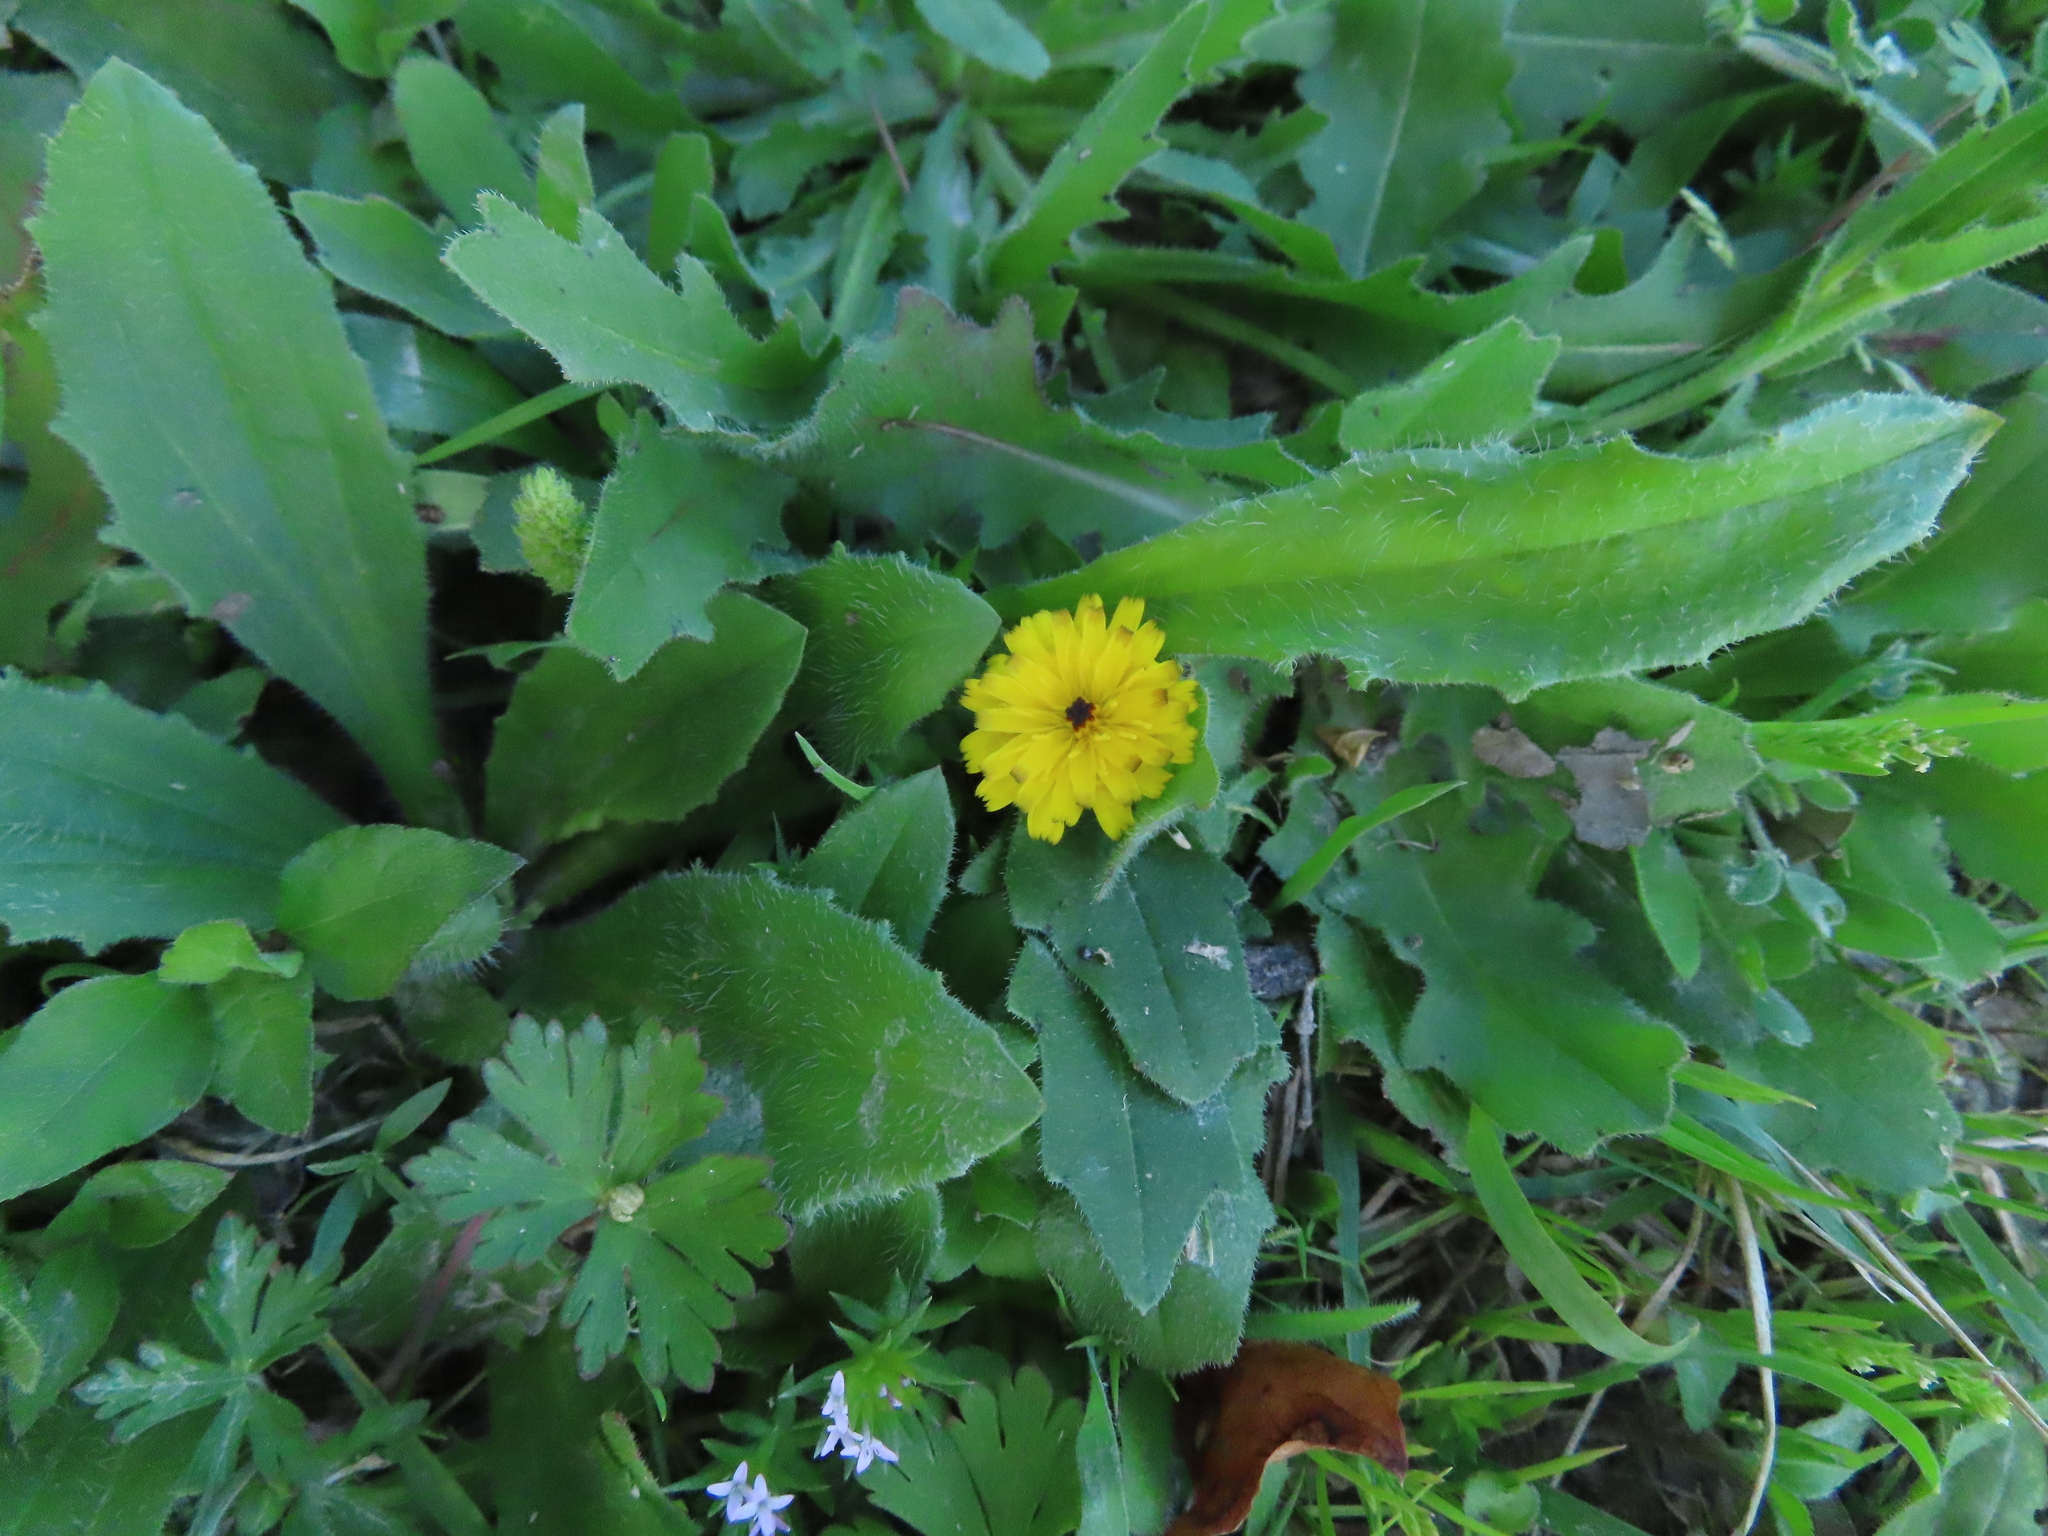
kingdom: Plantae
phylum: Tracheophyta
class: Magnoliopsida
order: Asterales
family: Asteraceae
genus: Hedypnois
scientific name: Hedypnois rhagadioloides
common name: Cretan weed
